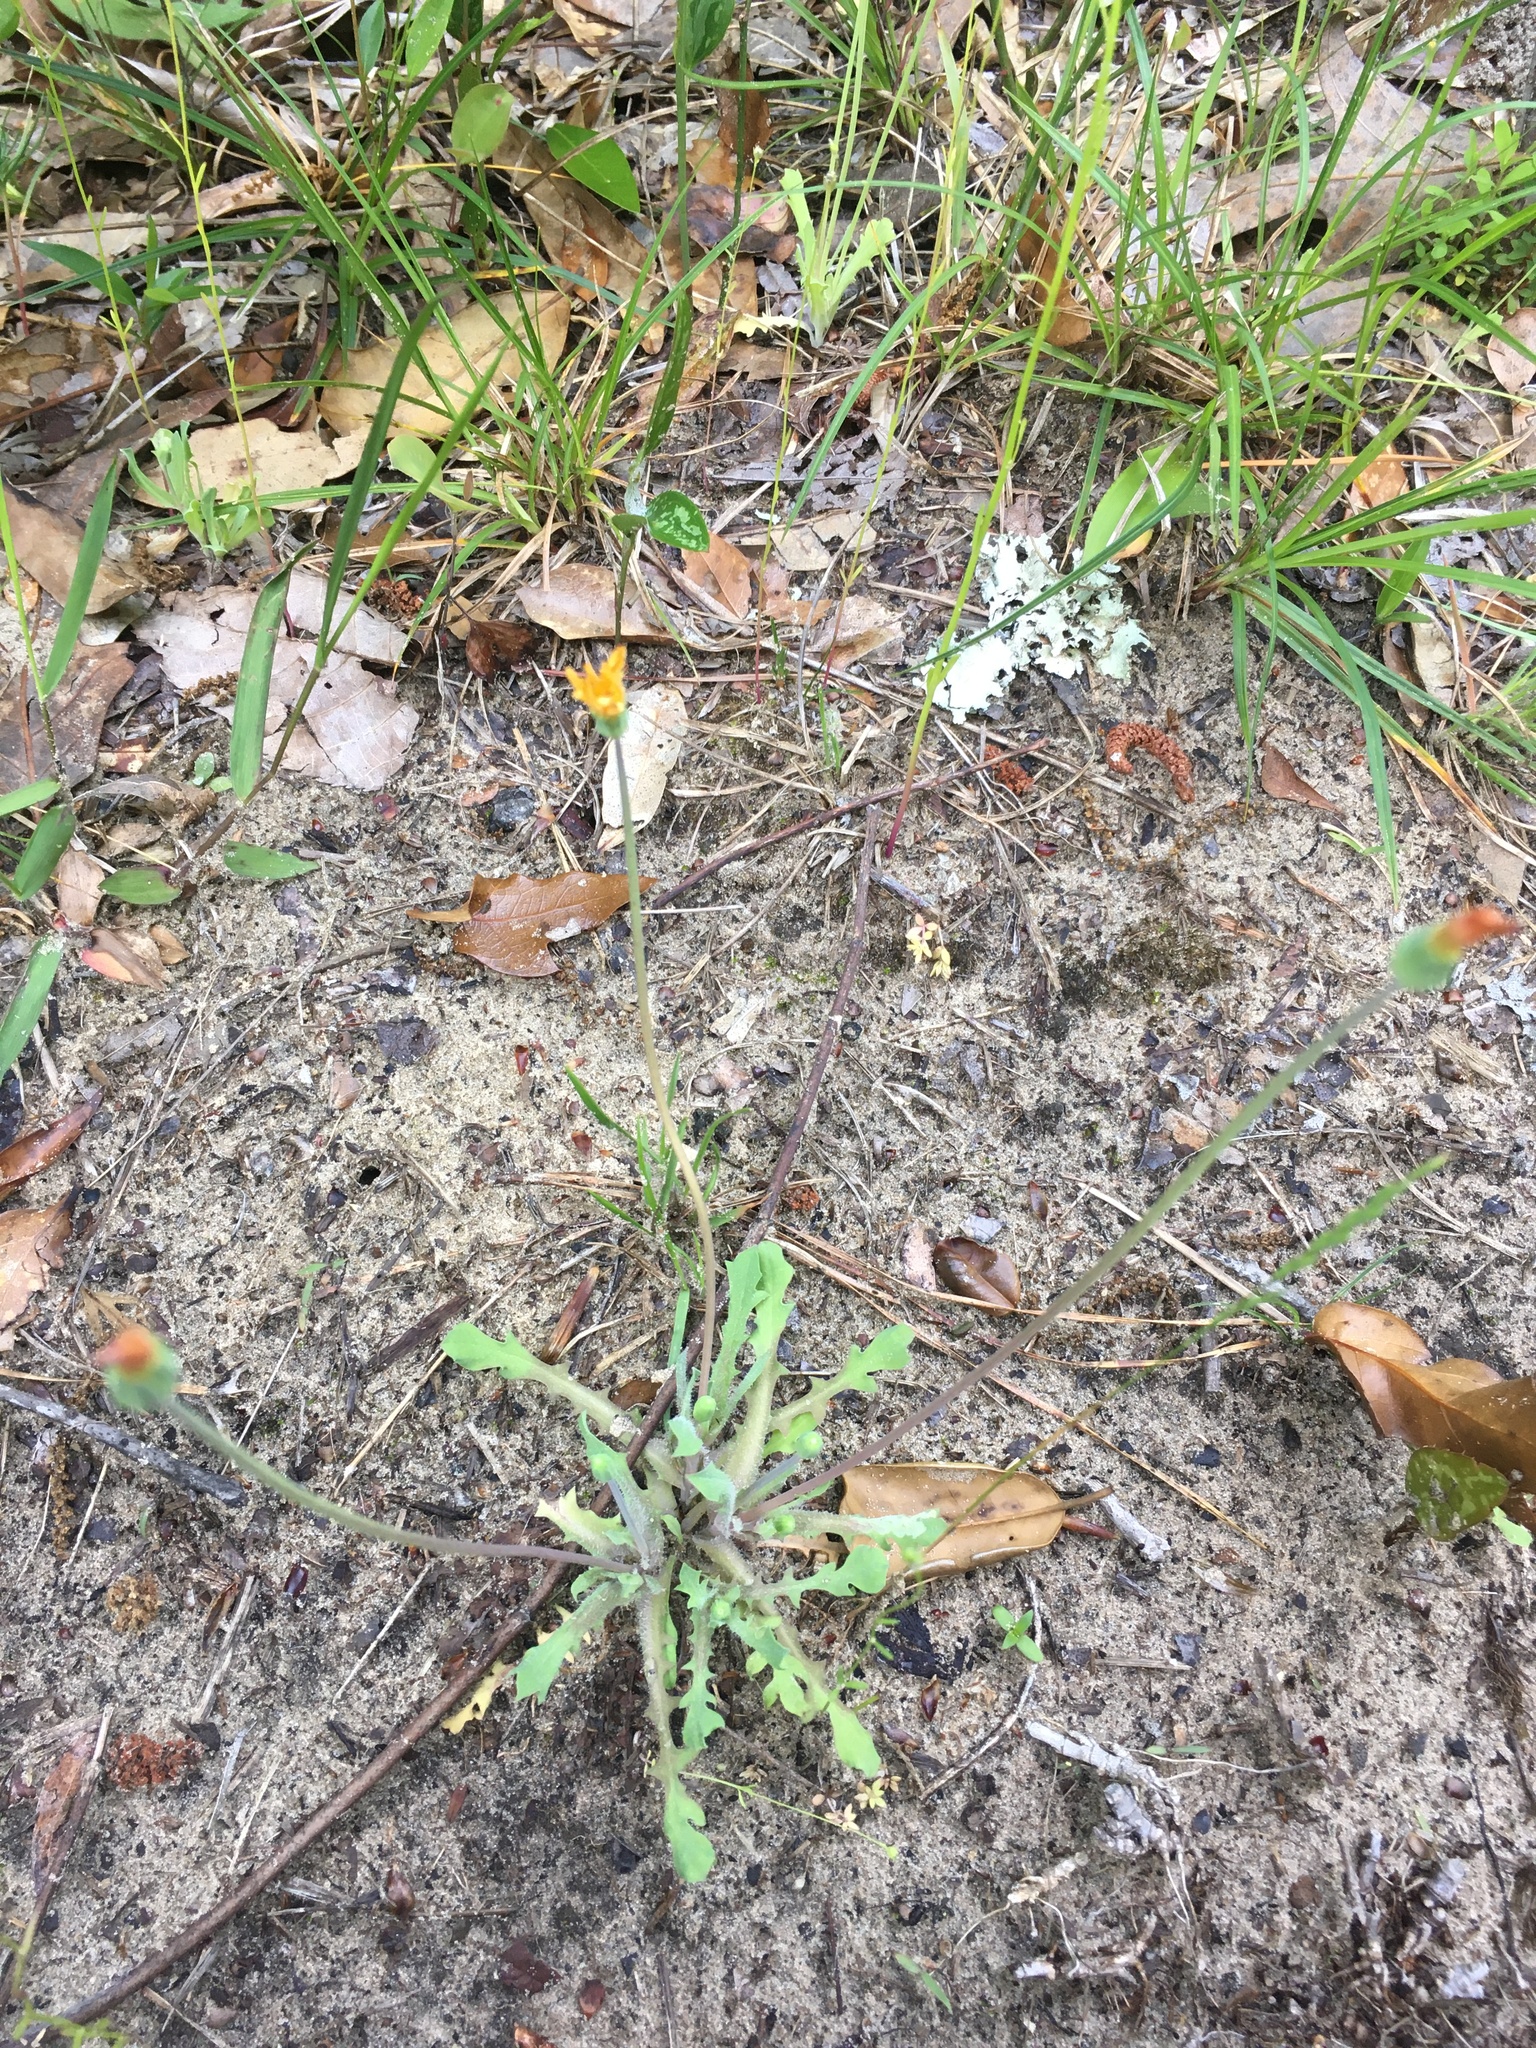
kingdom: Plantae
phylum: Tracheophyta
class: Magnoliopsida
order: Asterales
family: Asteraceae
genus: Krigia
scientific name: Krigia virginica
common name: Virginia dwarf-dandelion
